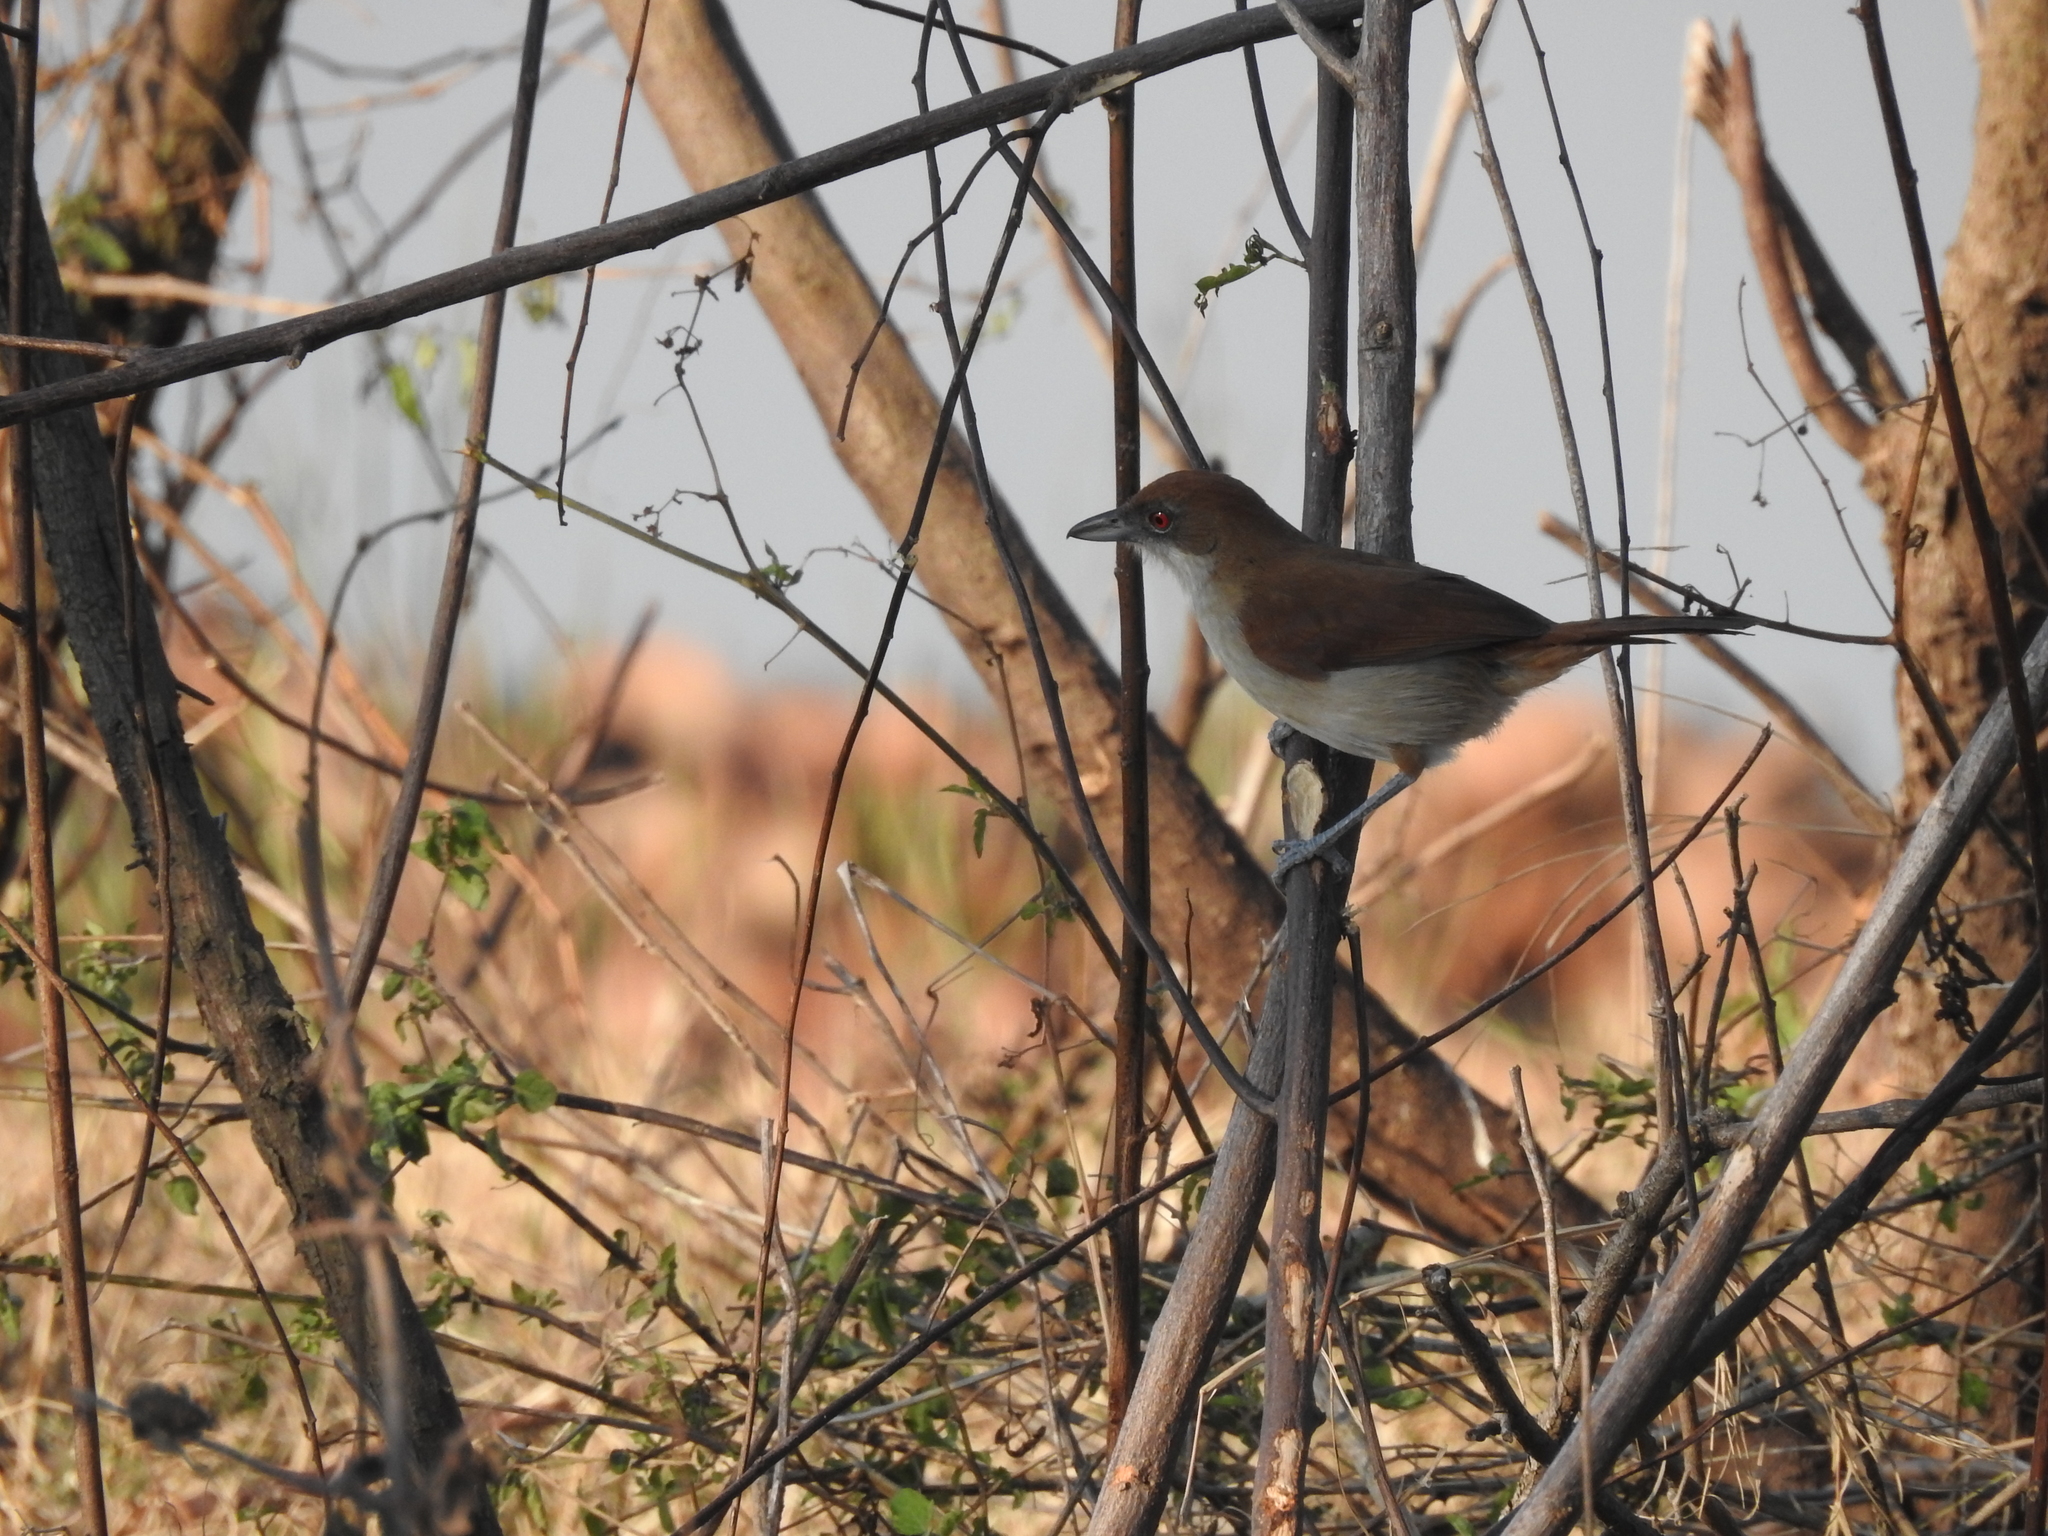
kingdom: Animalia
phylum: Chordata
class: Aves
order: Passeriformes
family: Thamnophilidae
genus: Taraba
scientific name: Taraba major
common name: Great antshrike
